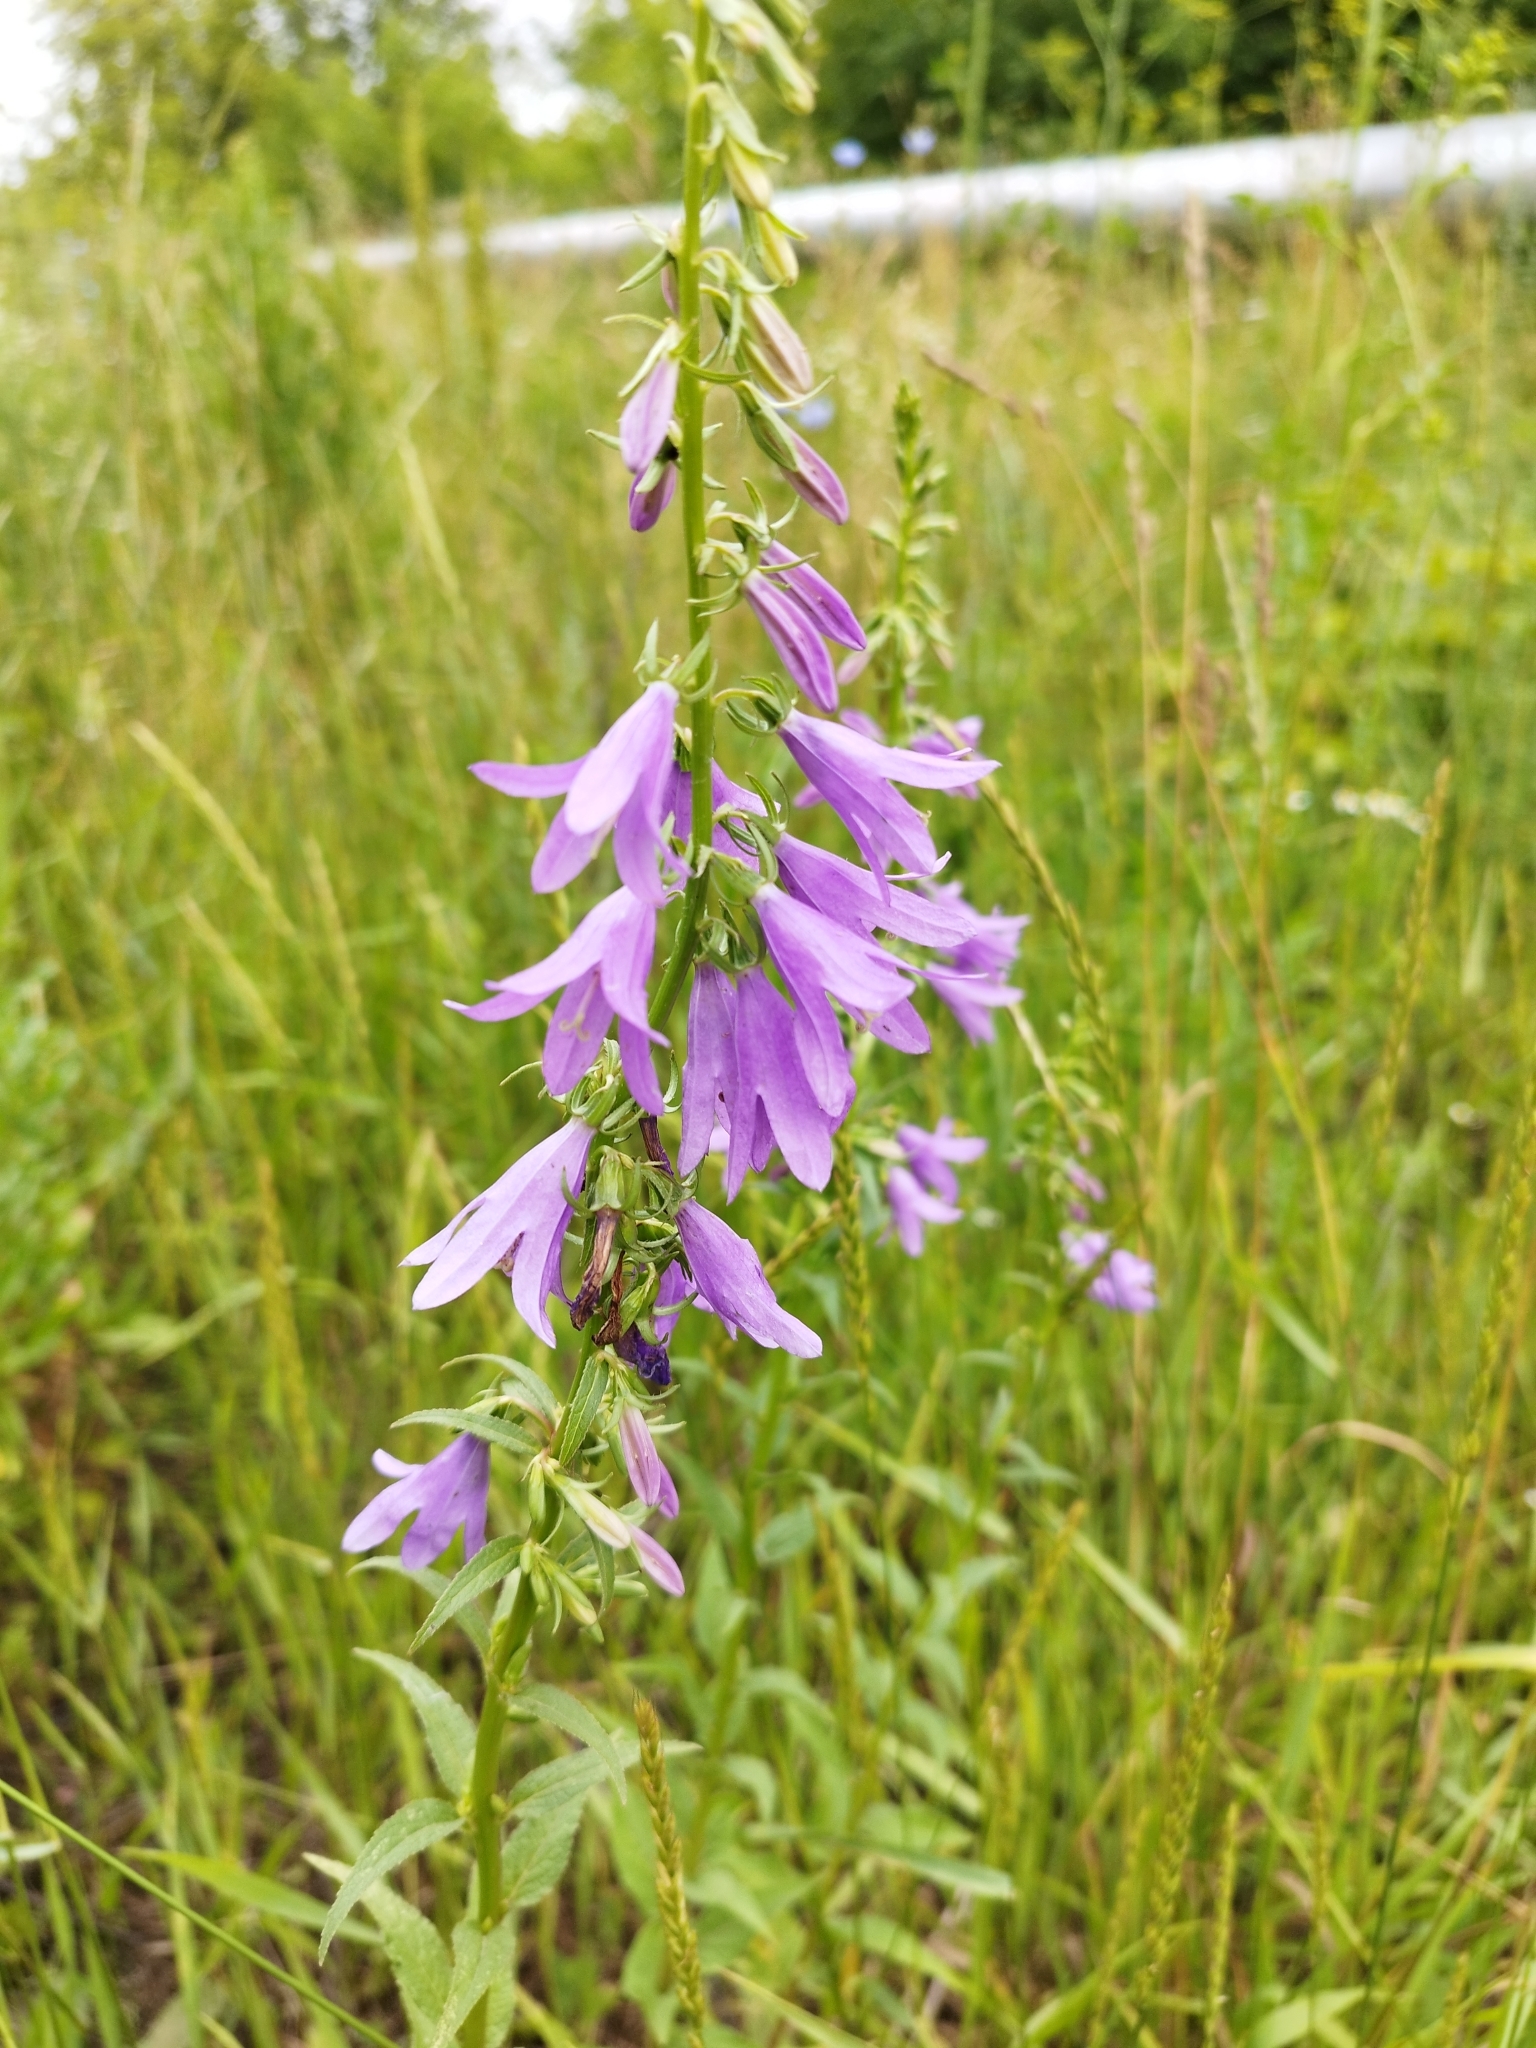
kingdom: Plantae
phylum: Tracheophyta
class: Magnoliopsida
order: Asterales
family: Campanulaceae
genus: Campanula
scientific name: Campanula rapunculoides
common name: Creeping bellflower
